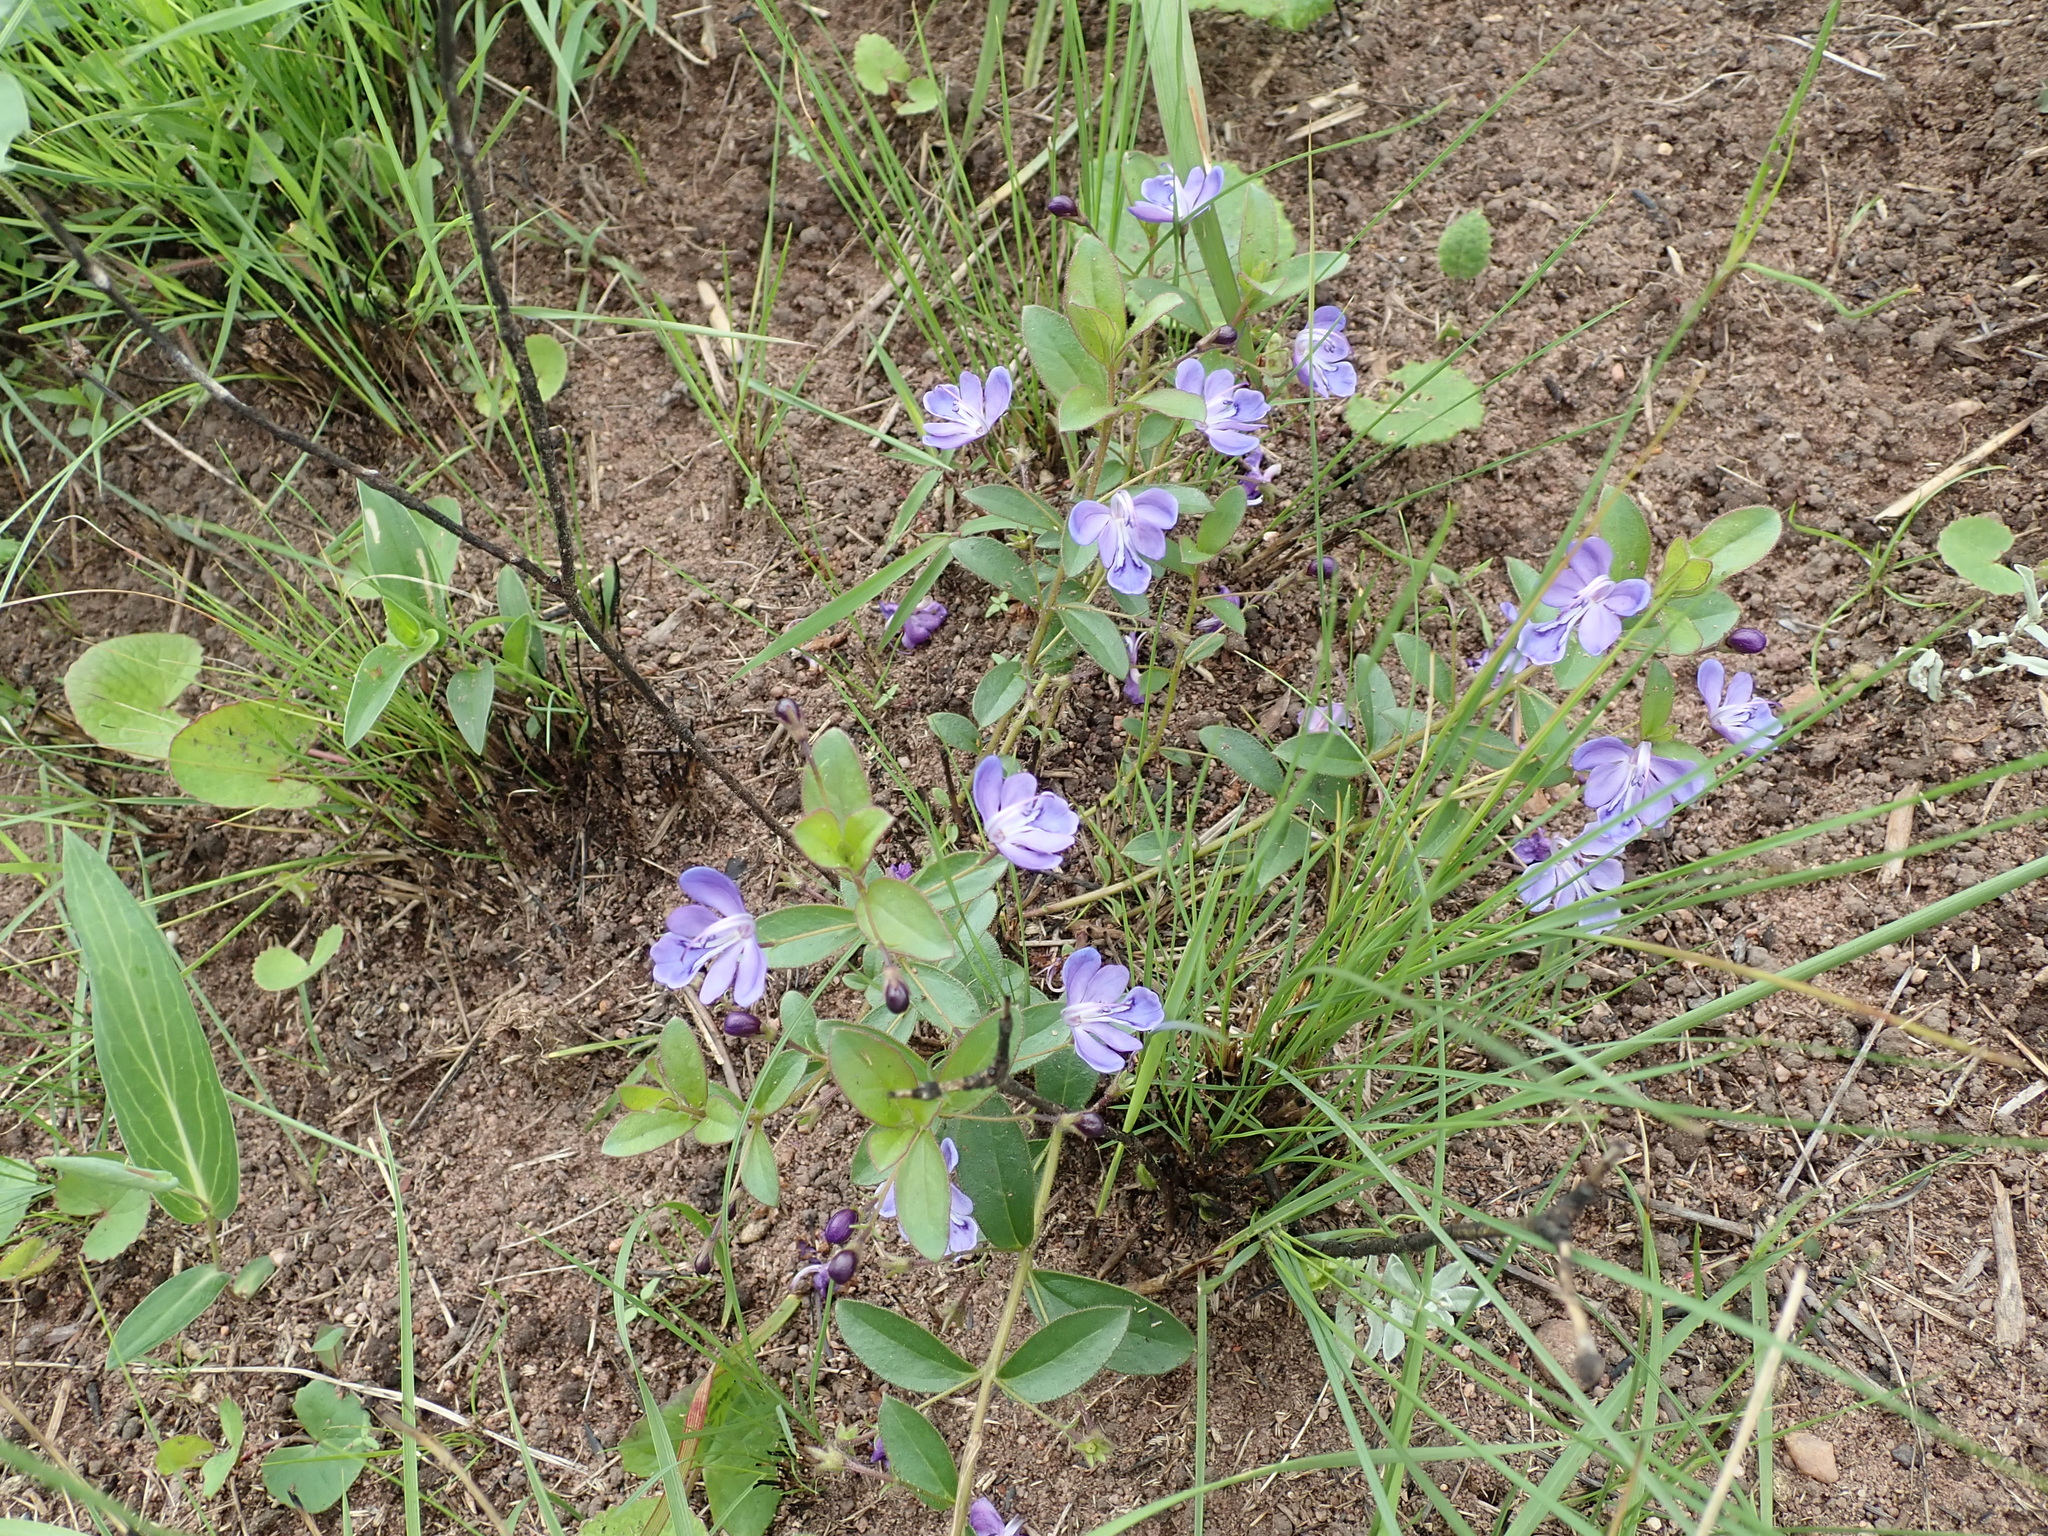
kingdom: Plantae
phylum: Tracheophyta
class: Magnoliopsida
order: Lamiales
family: Lamiaceae
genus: Rotheca
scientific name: Rotheca hirsuta
